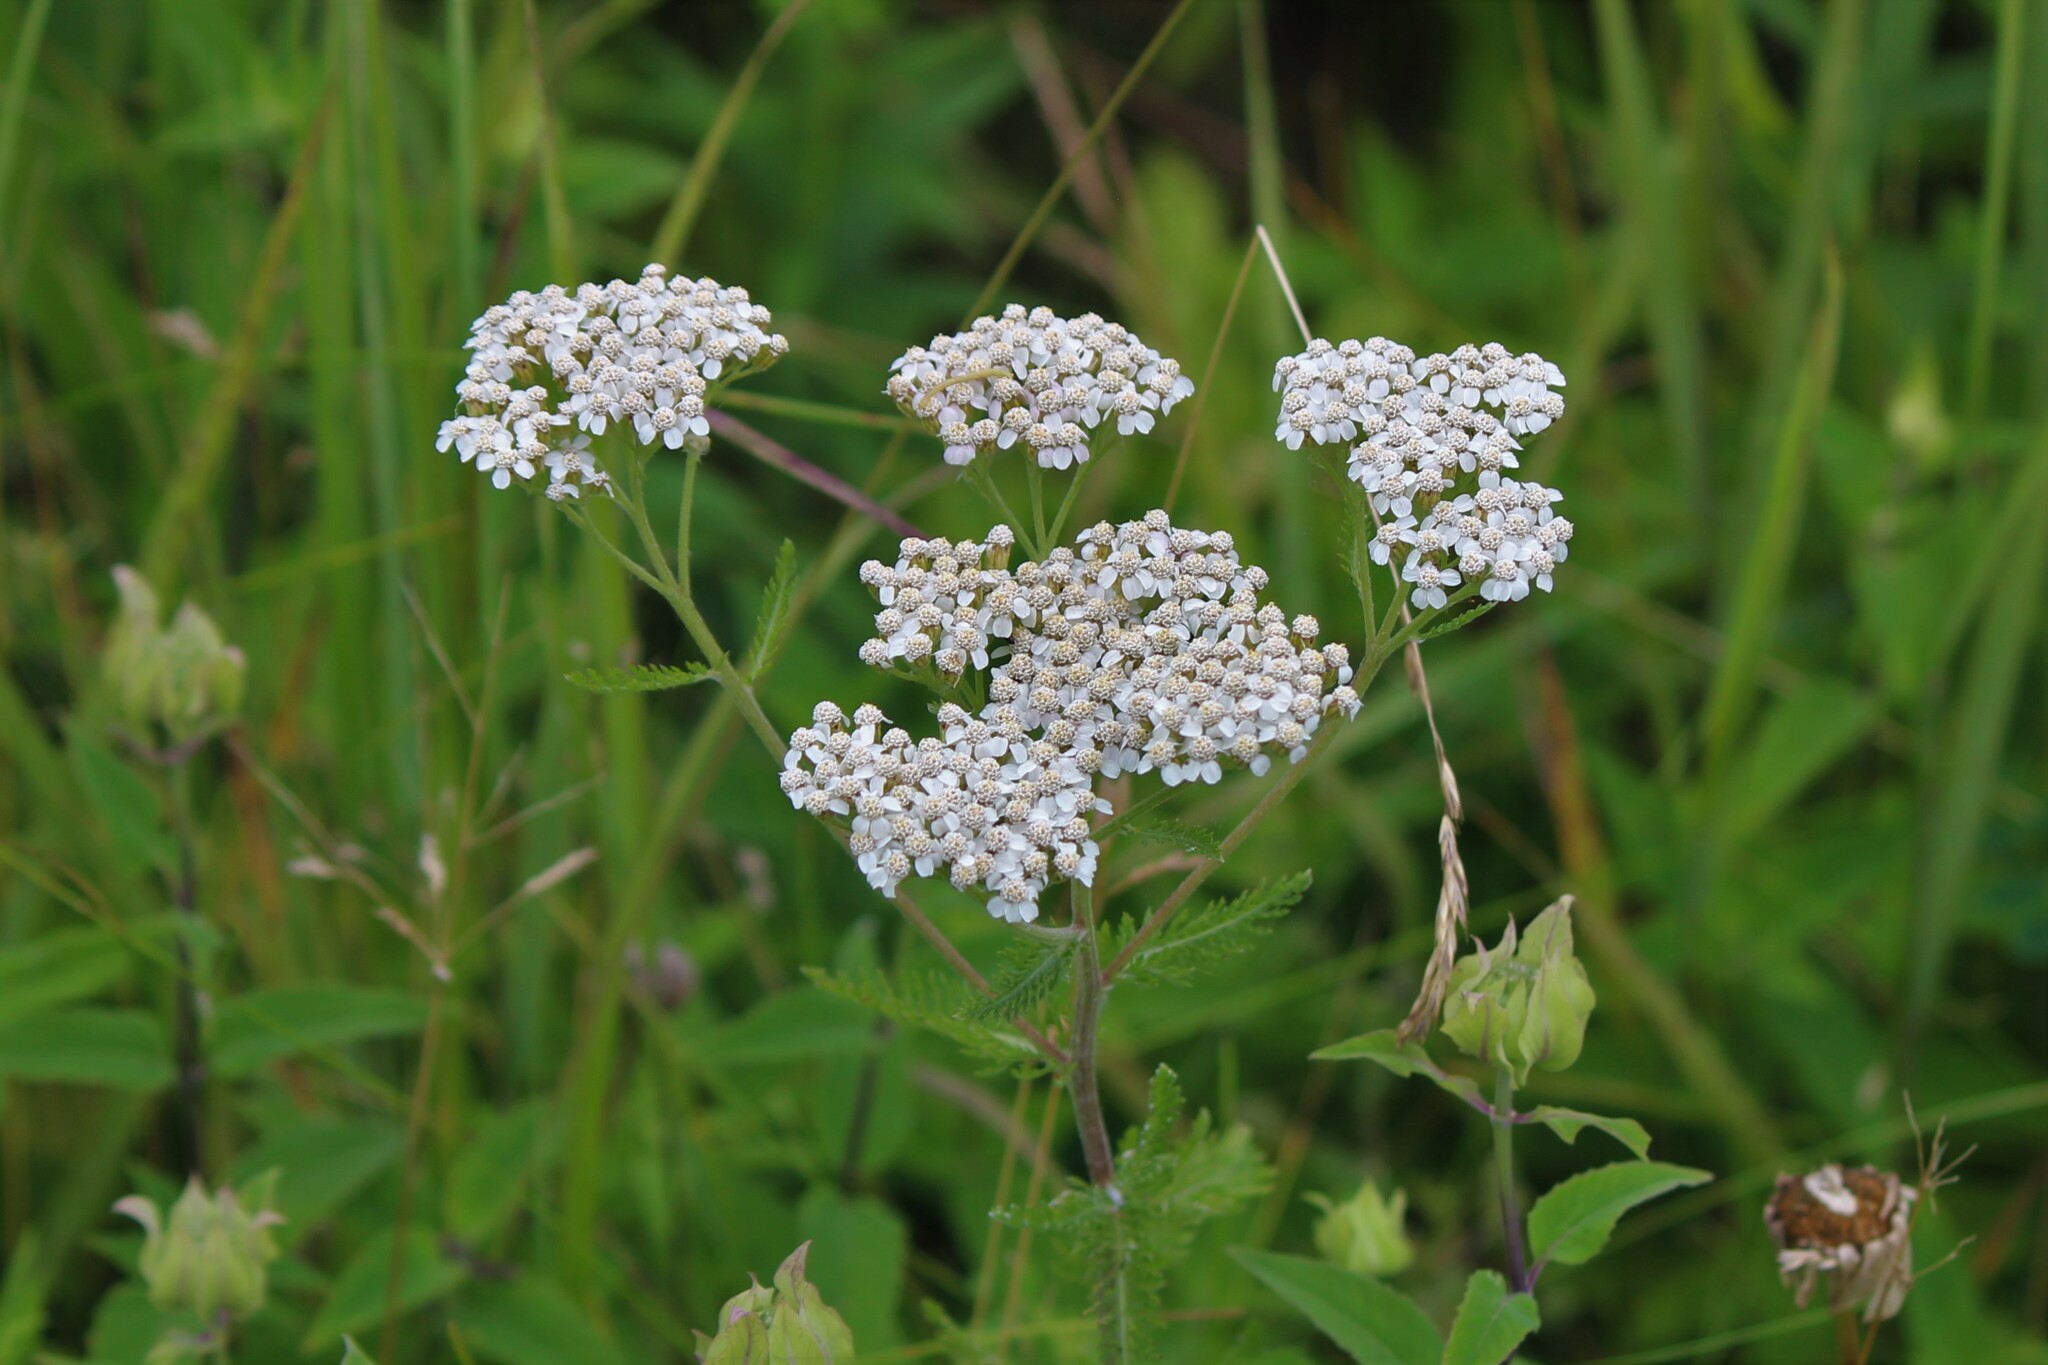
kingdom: Plantae
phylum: Tracheophyta
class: Magnoliopsida
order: Asterales
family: Asteraceae
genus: Achillea
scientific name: Achillea millefolium
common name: Yarrow
